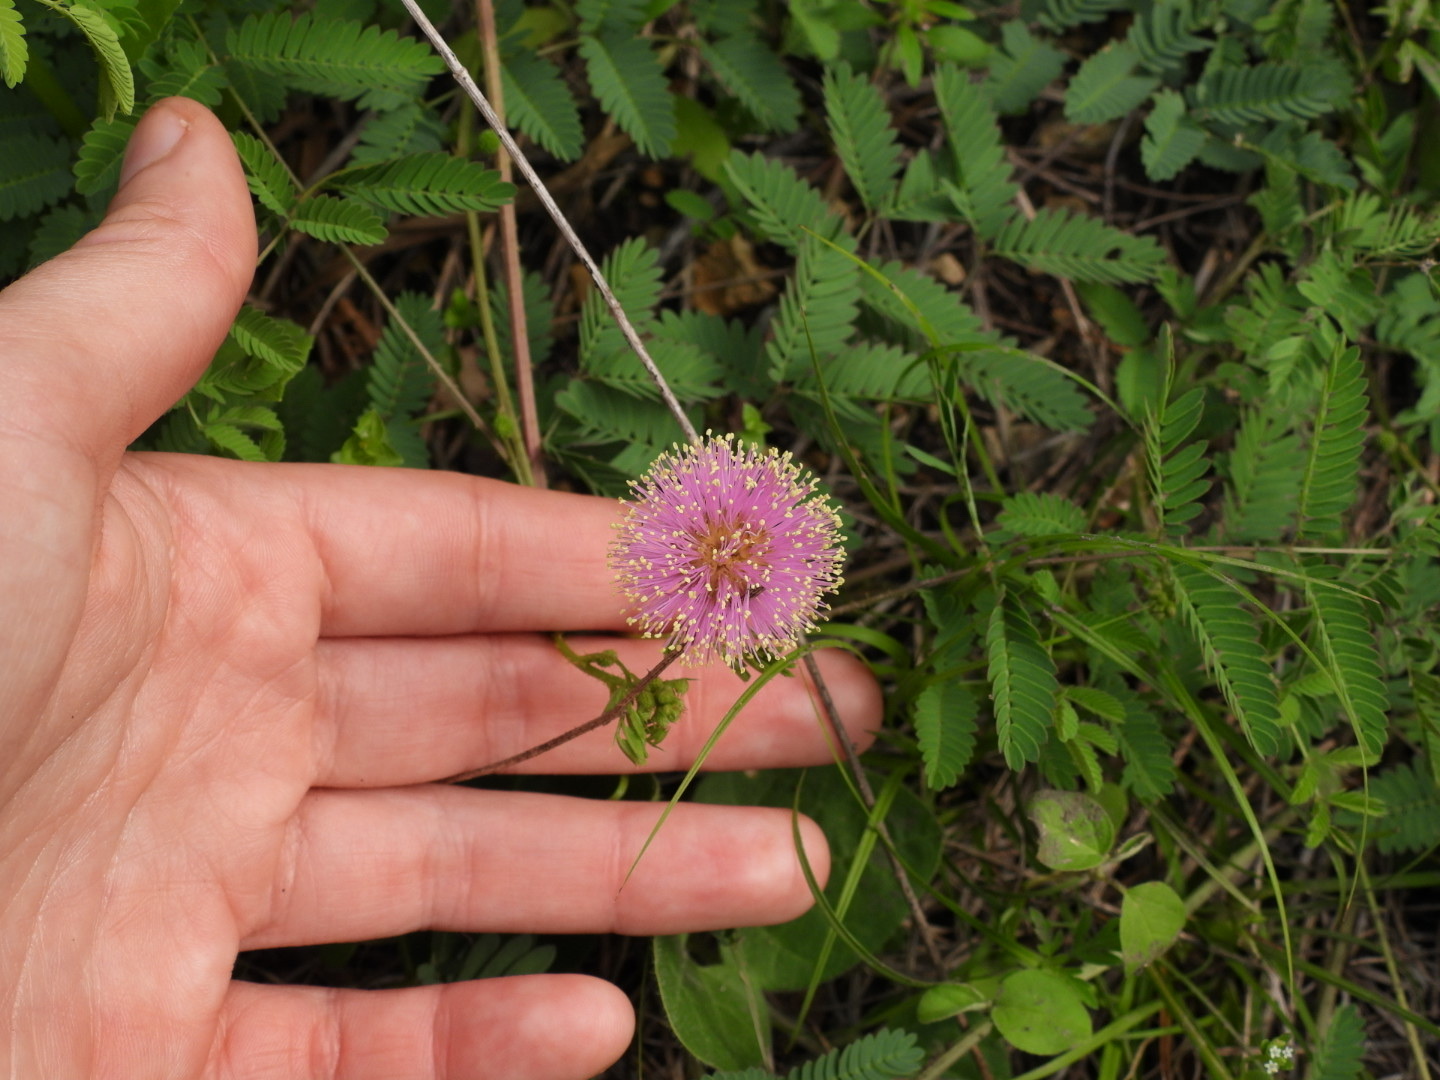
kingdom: Plantae
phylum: Tracheophyta
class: Magnoliopsida
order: Fabales
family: Fabaceae
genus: Mimosa
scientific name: Mimosa quadrivalvis
